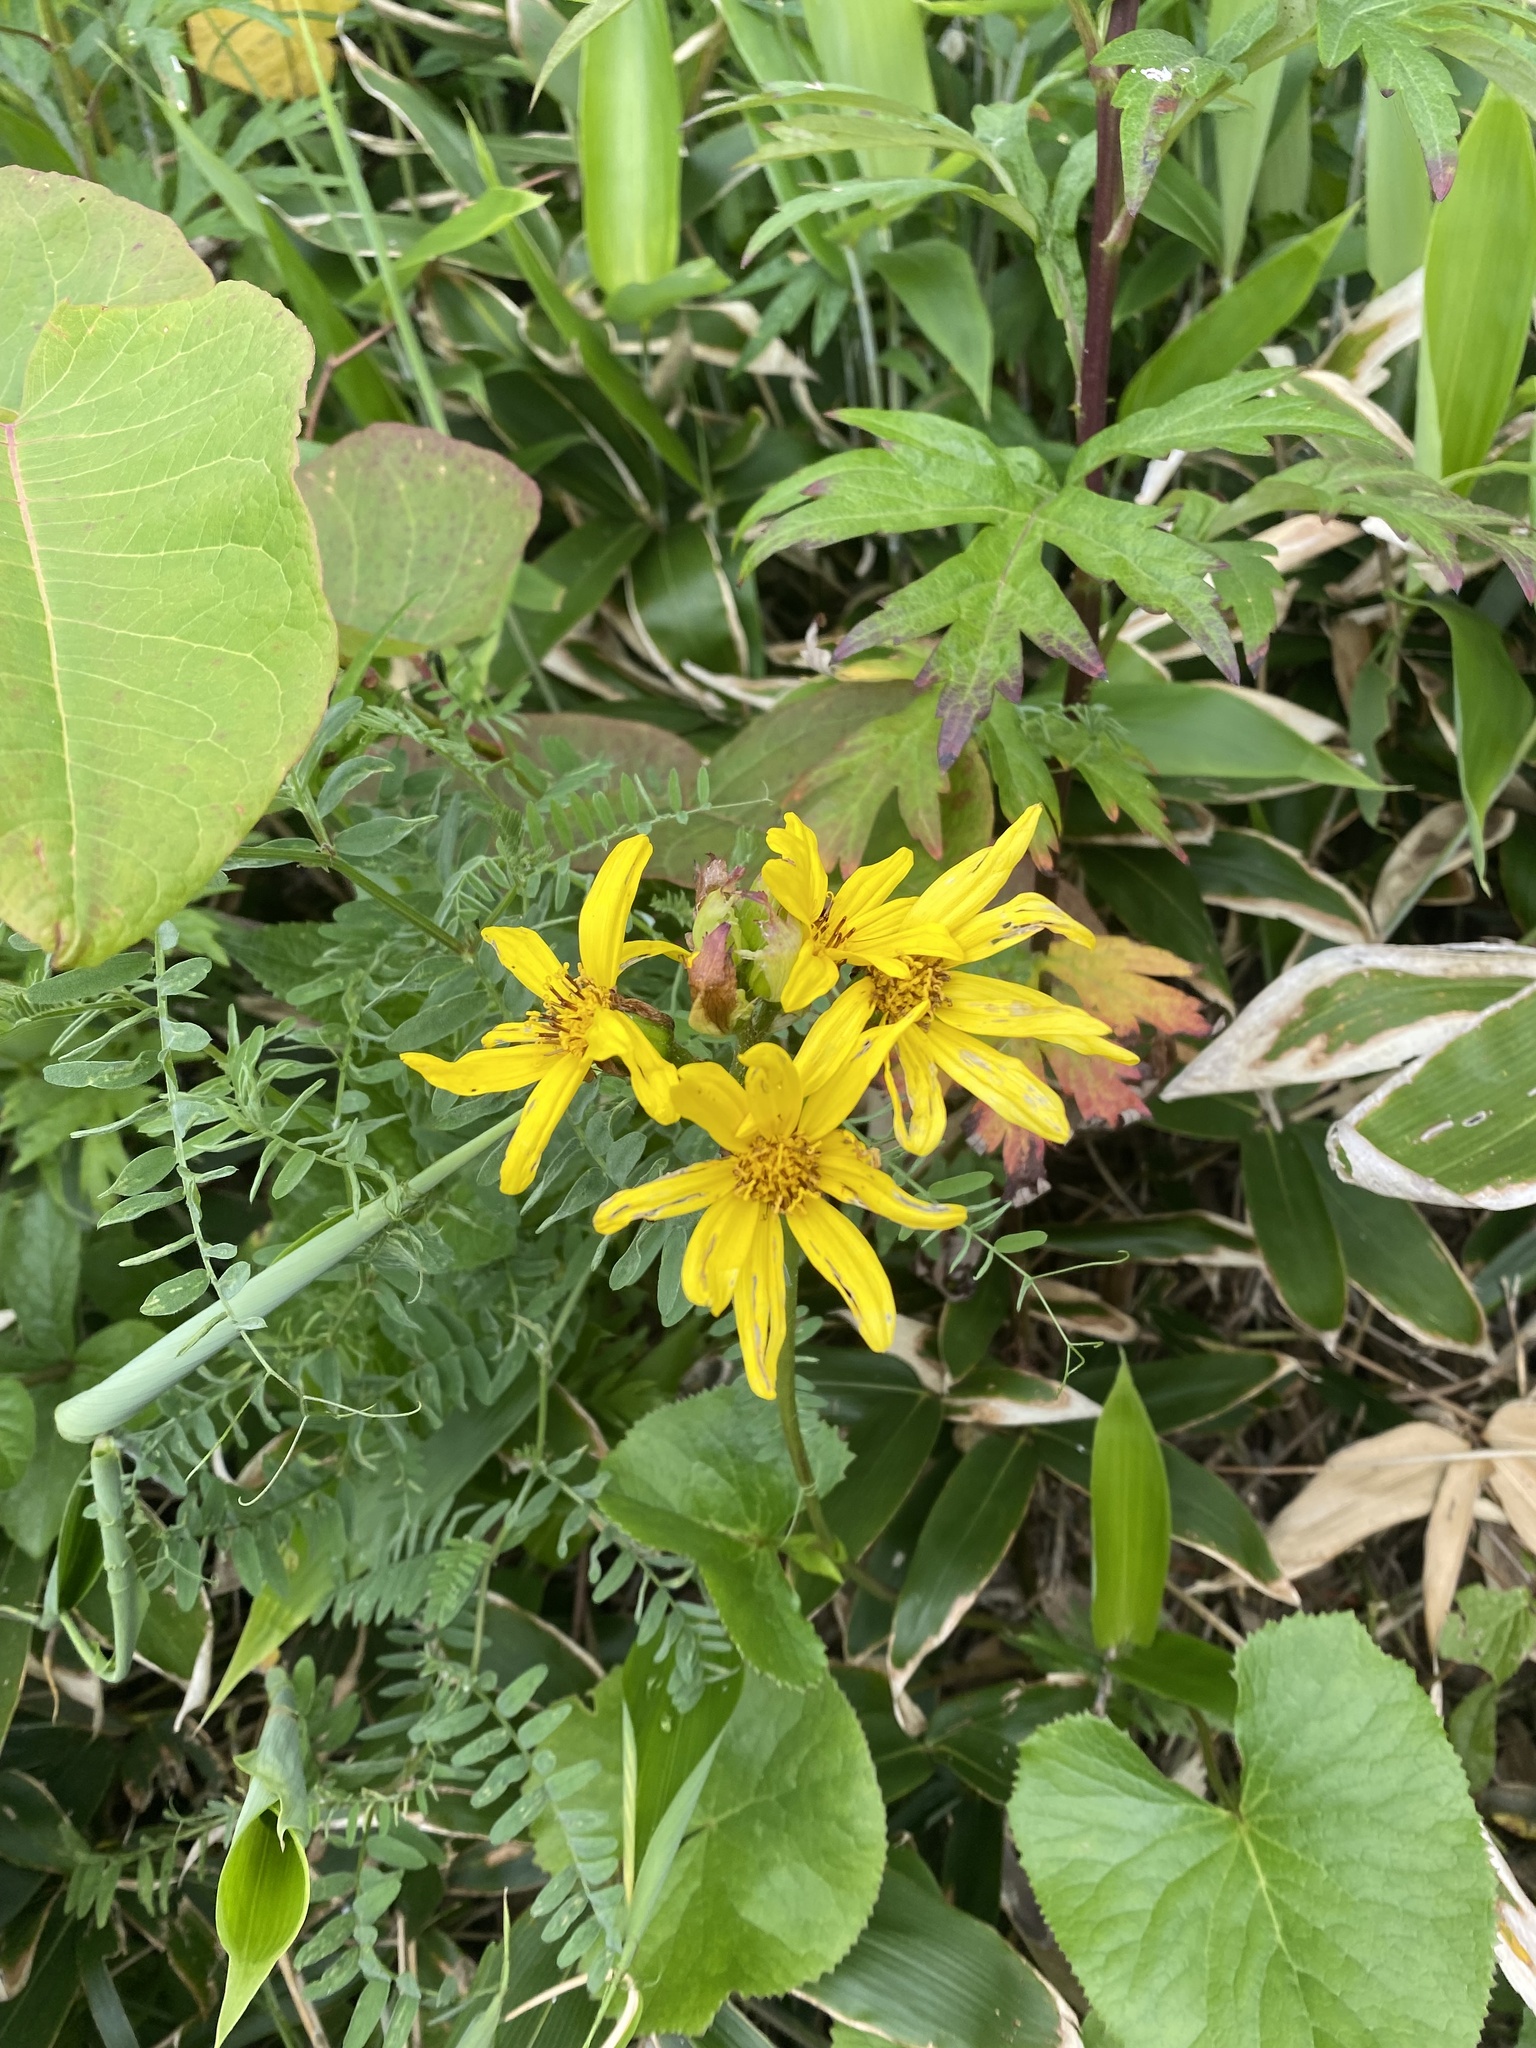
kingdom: Plantae
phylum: Tracheophyta
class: Magnoliopsida
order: Asterales
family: Asteraceae
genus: Ligularia
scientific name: Ligularia hodgsonii
